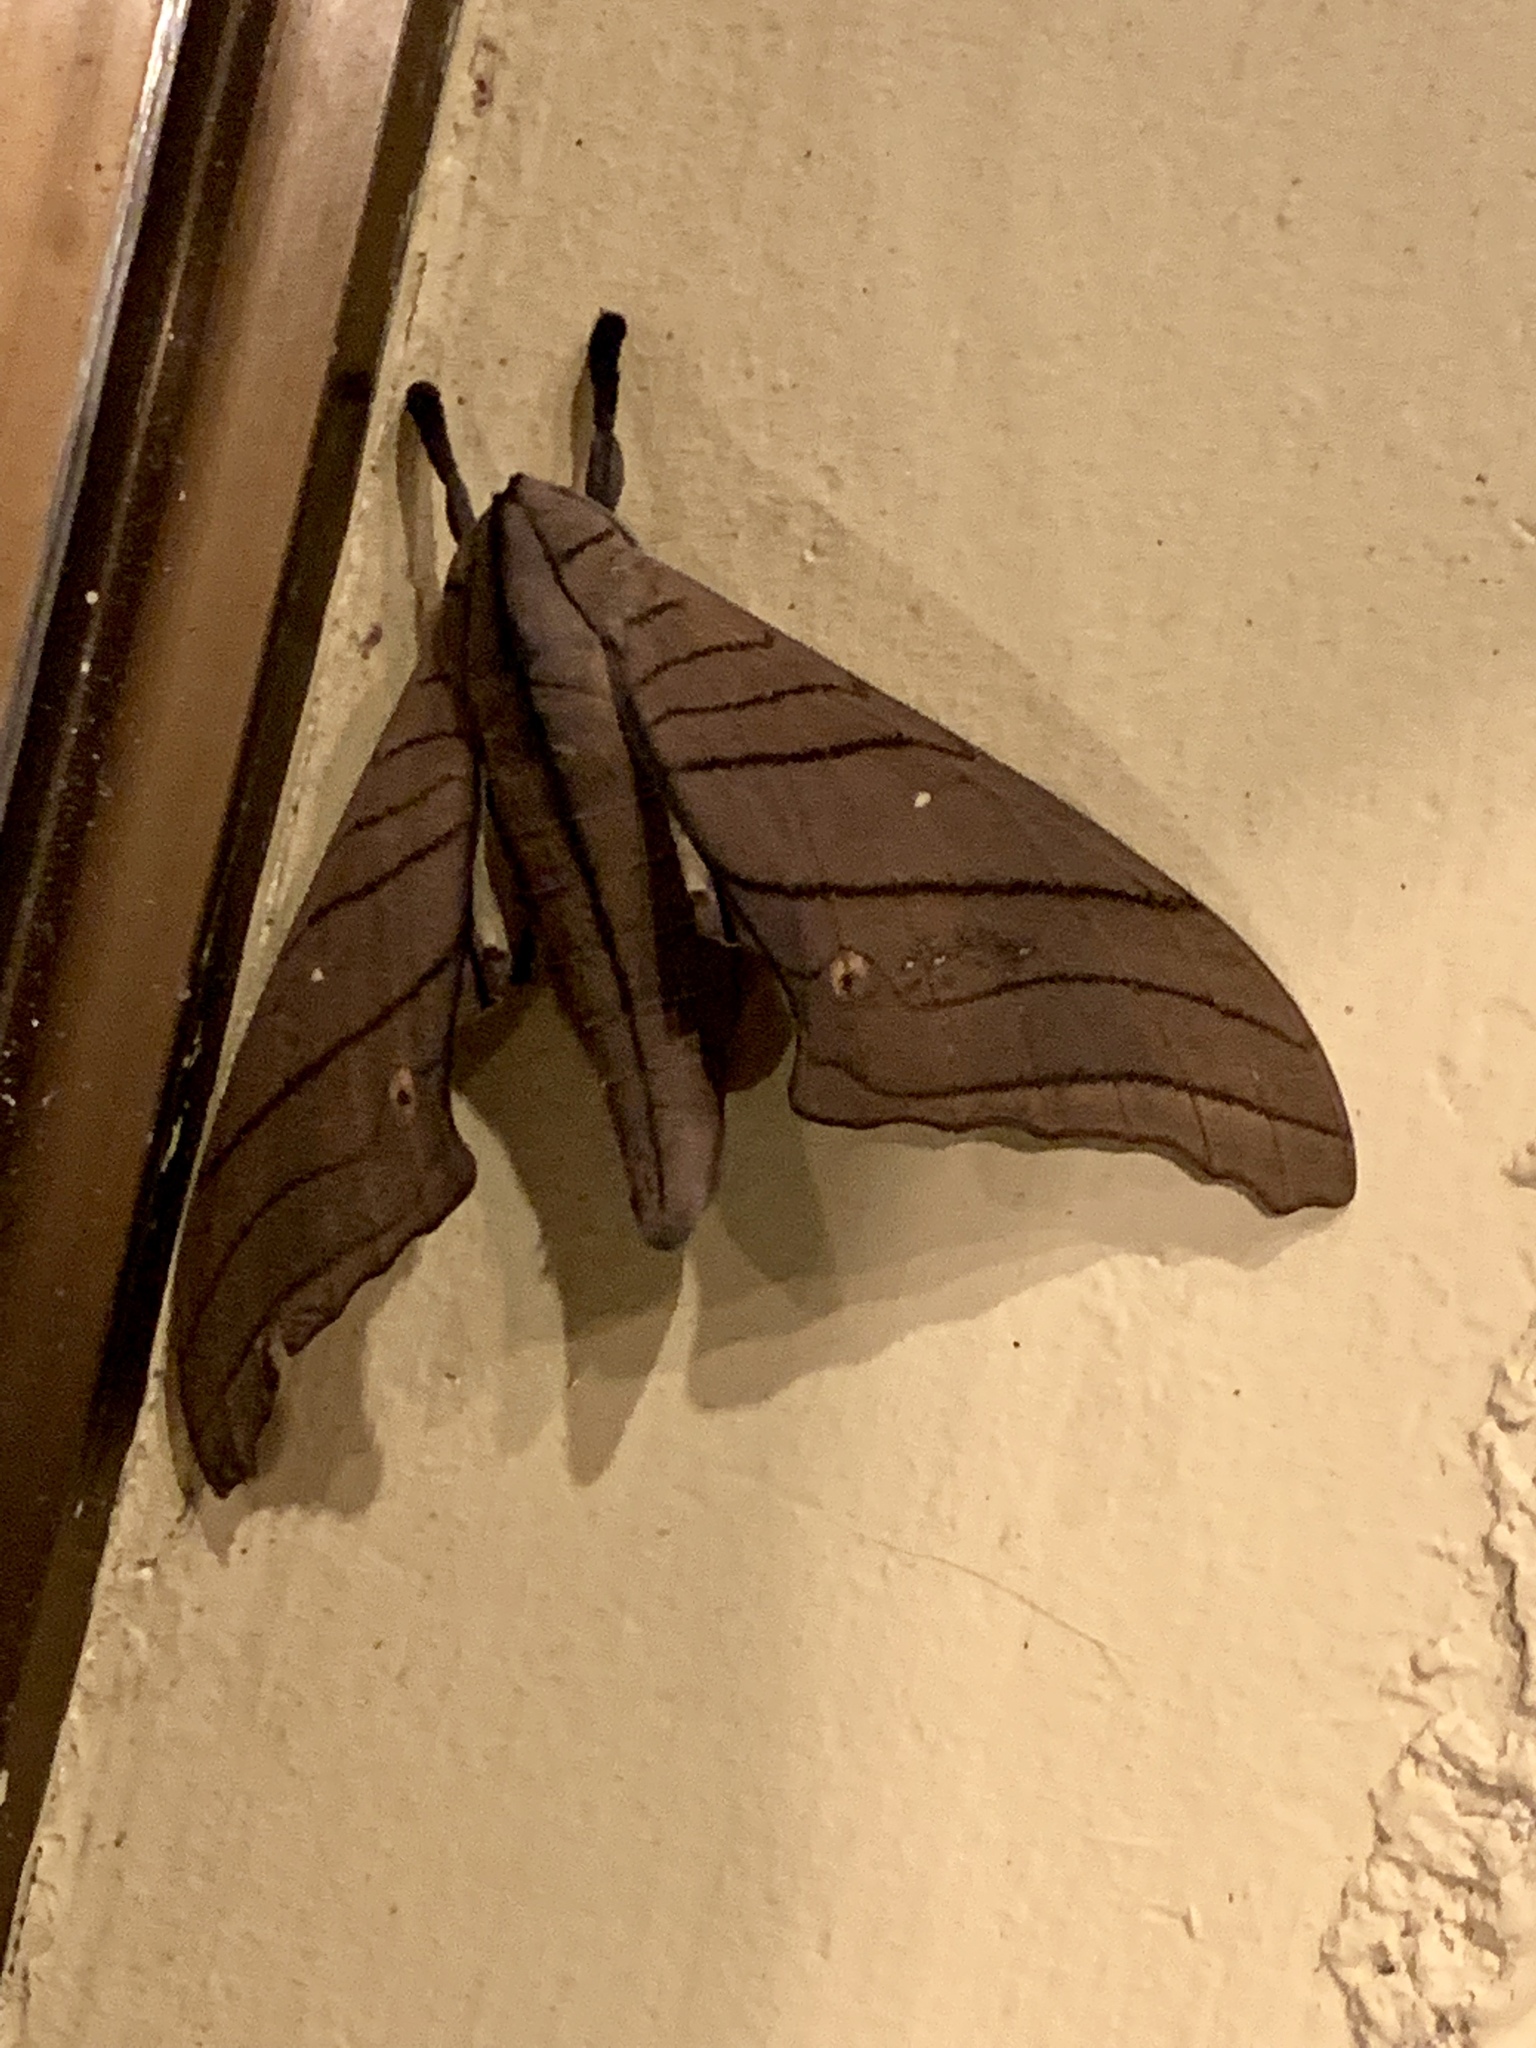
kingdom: Animalia
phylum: Arthropoda
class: Insecta
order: Lepidoptera
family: Sphingidae
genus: Marumba
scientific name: Marumba cristata
